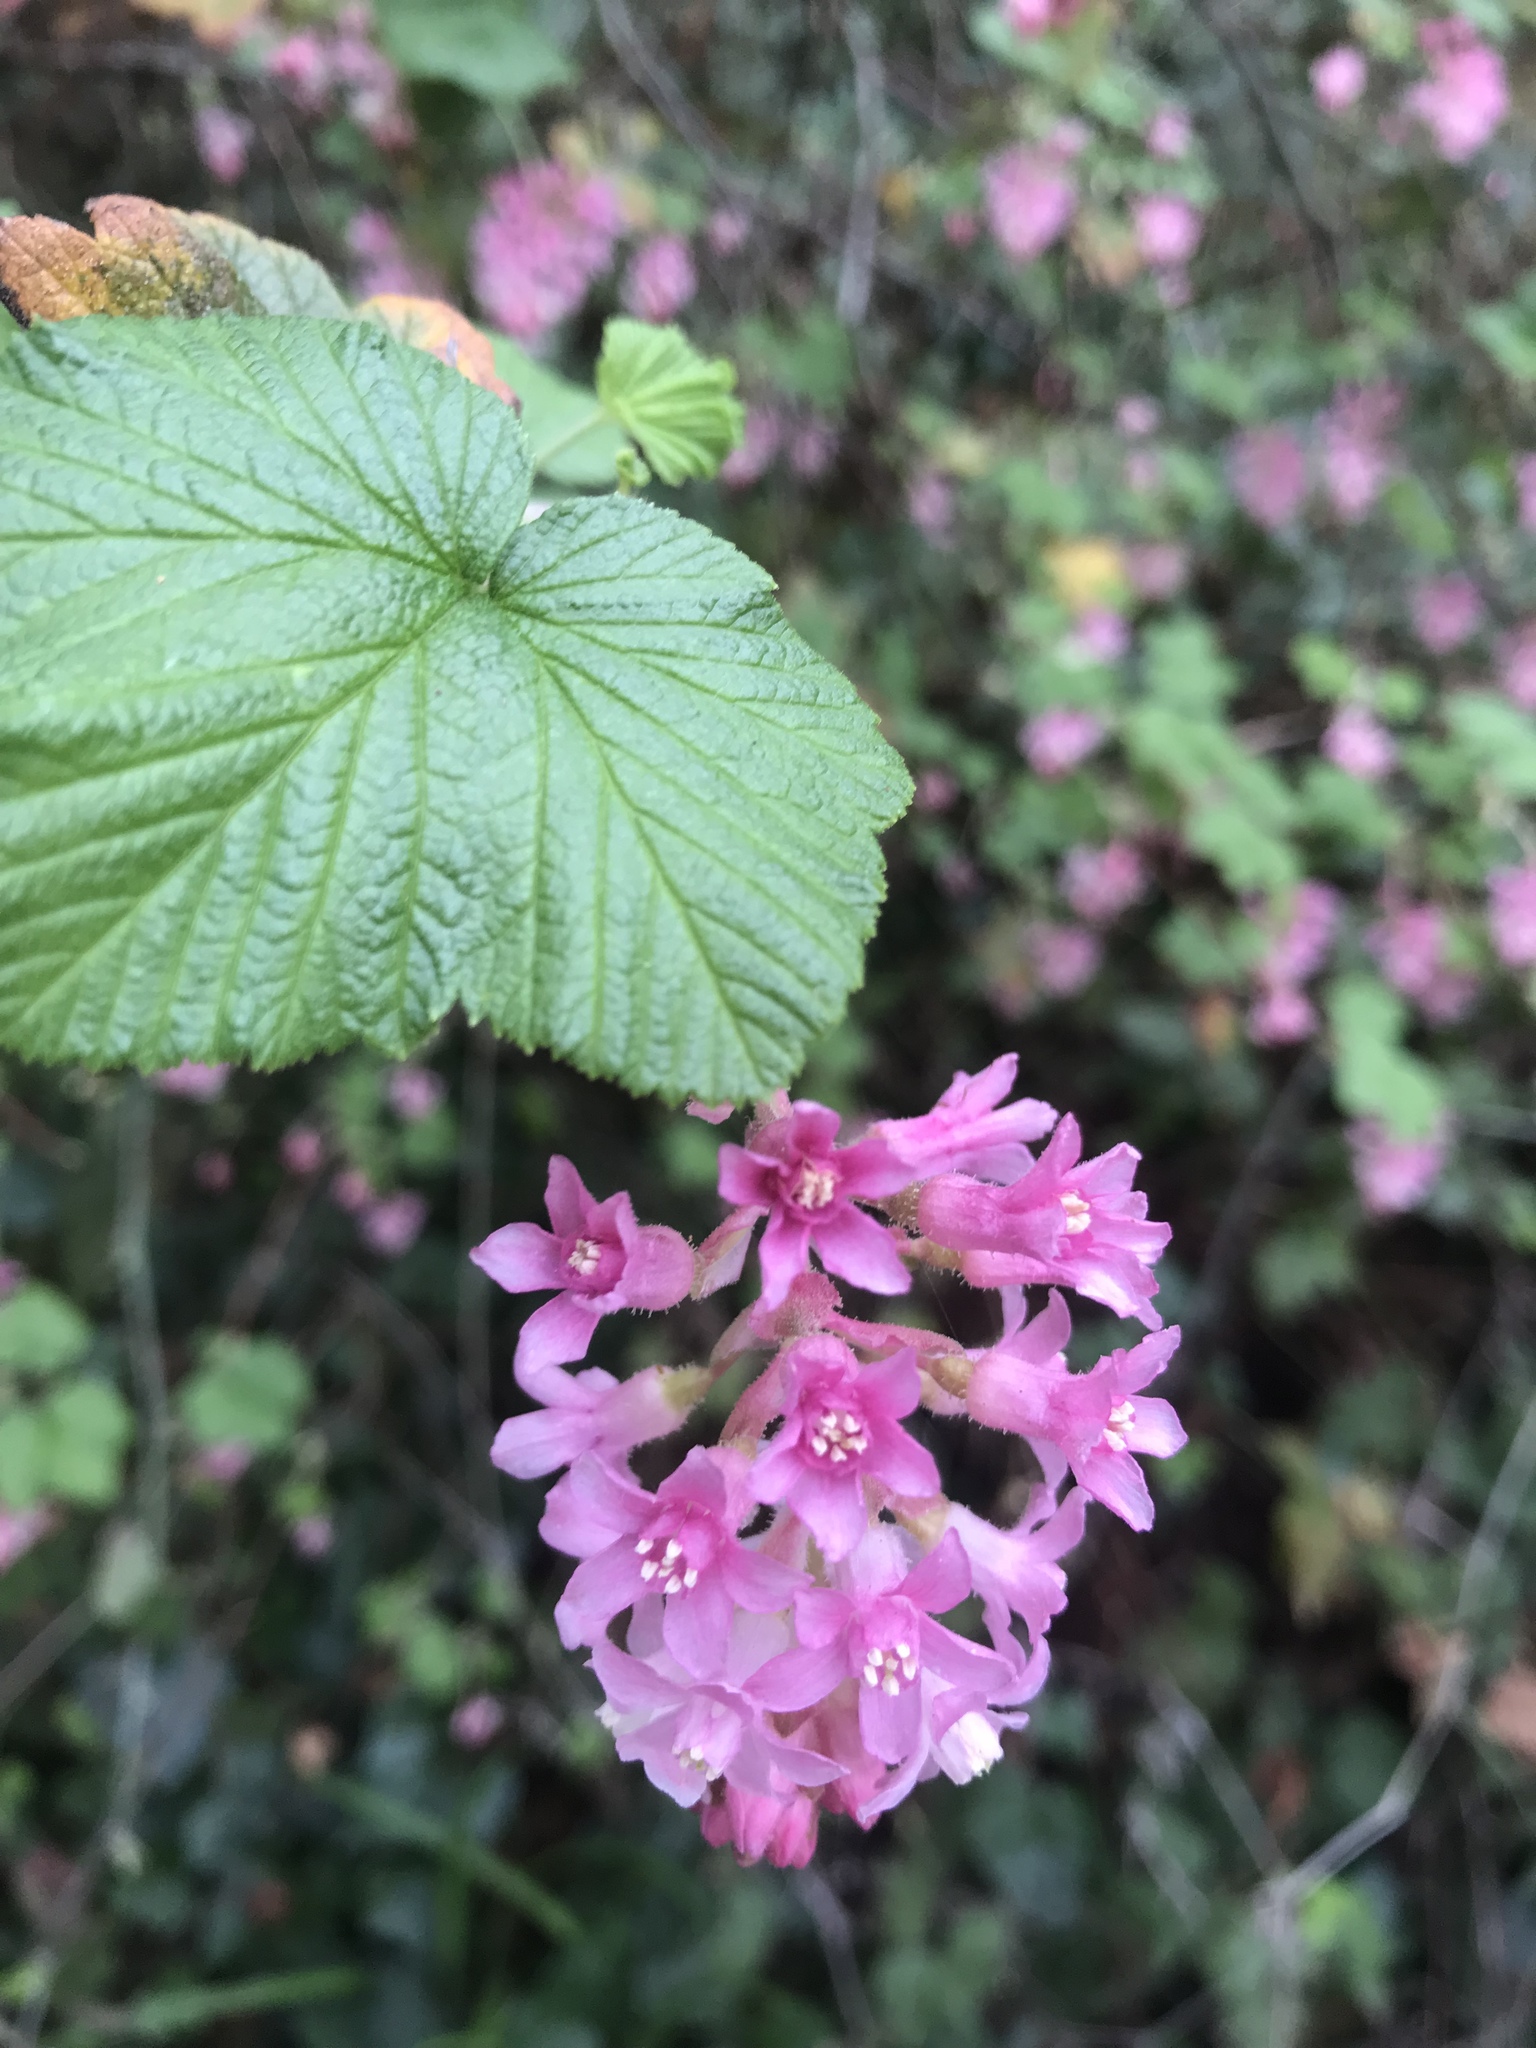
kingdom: Plantae
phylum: Tracheophyta
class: Magnoliopsida
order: Saxifragales
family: Grossulariaceae
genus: Ribes
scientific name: Ribes sanguineum
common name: Flowering currant
